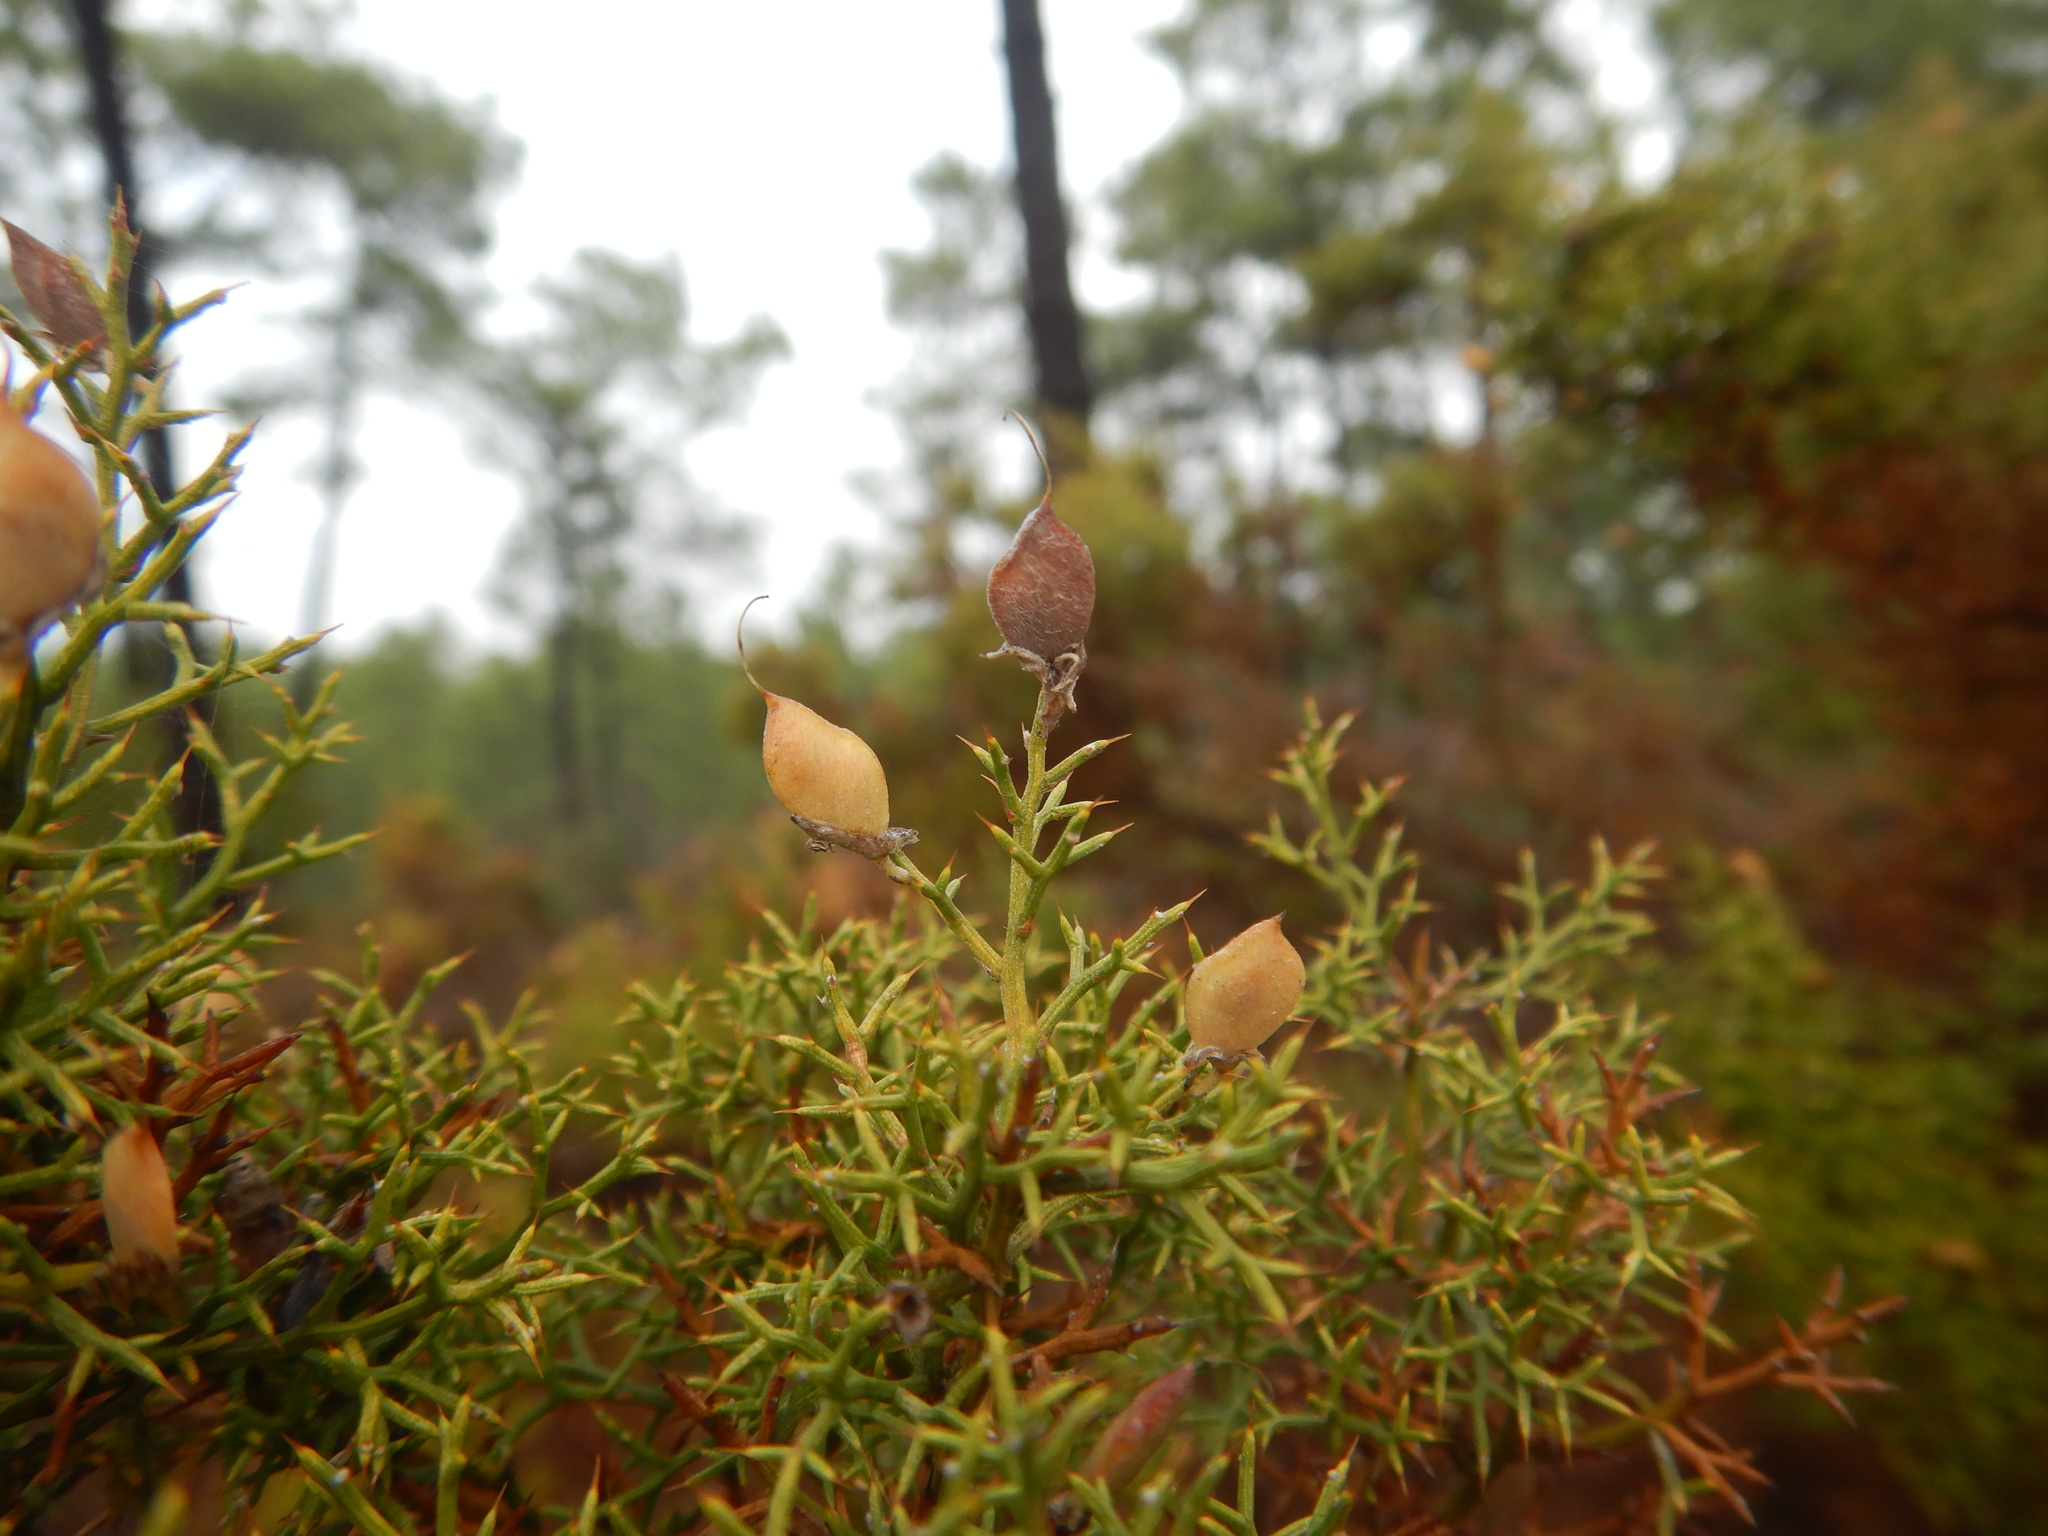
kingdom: Plantae
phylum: Tracheophyta
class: Magnoliopsida
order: Fabales
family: Fabaceae
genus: Stauracanthus
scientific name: Stauracanthus boivinii
